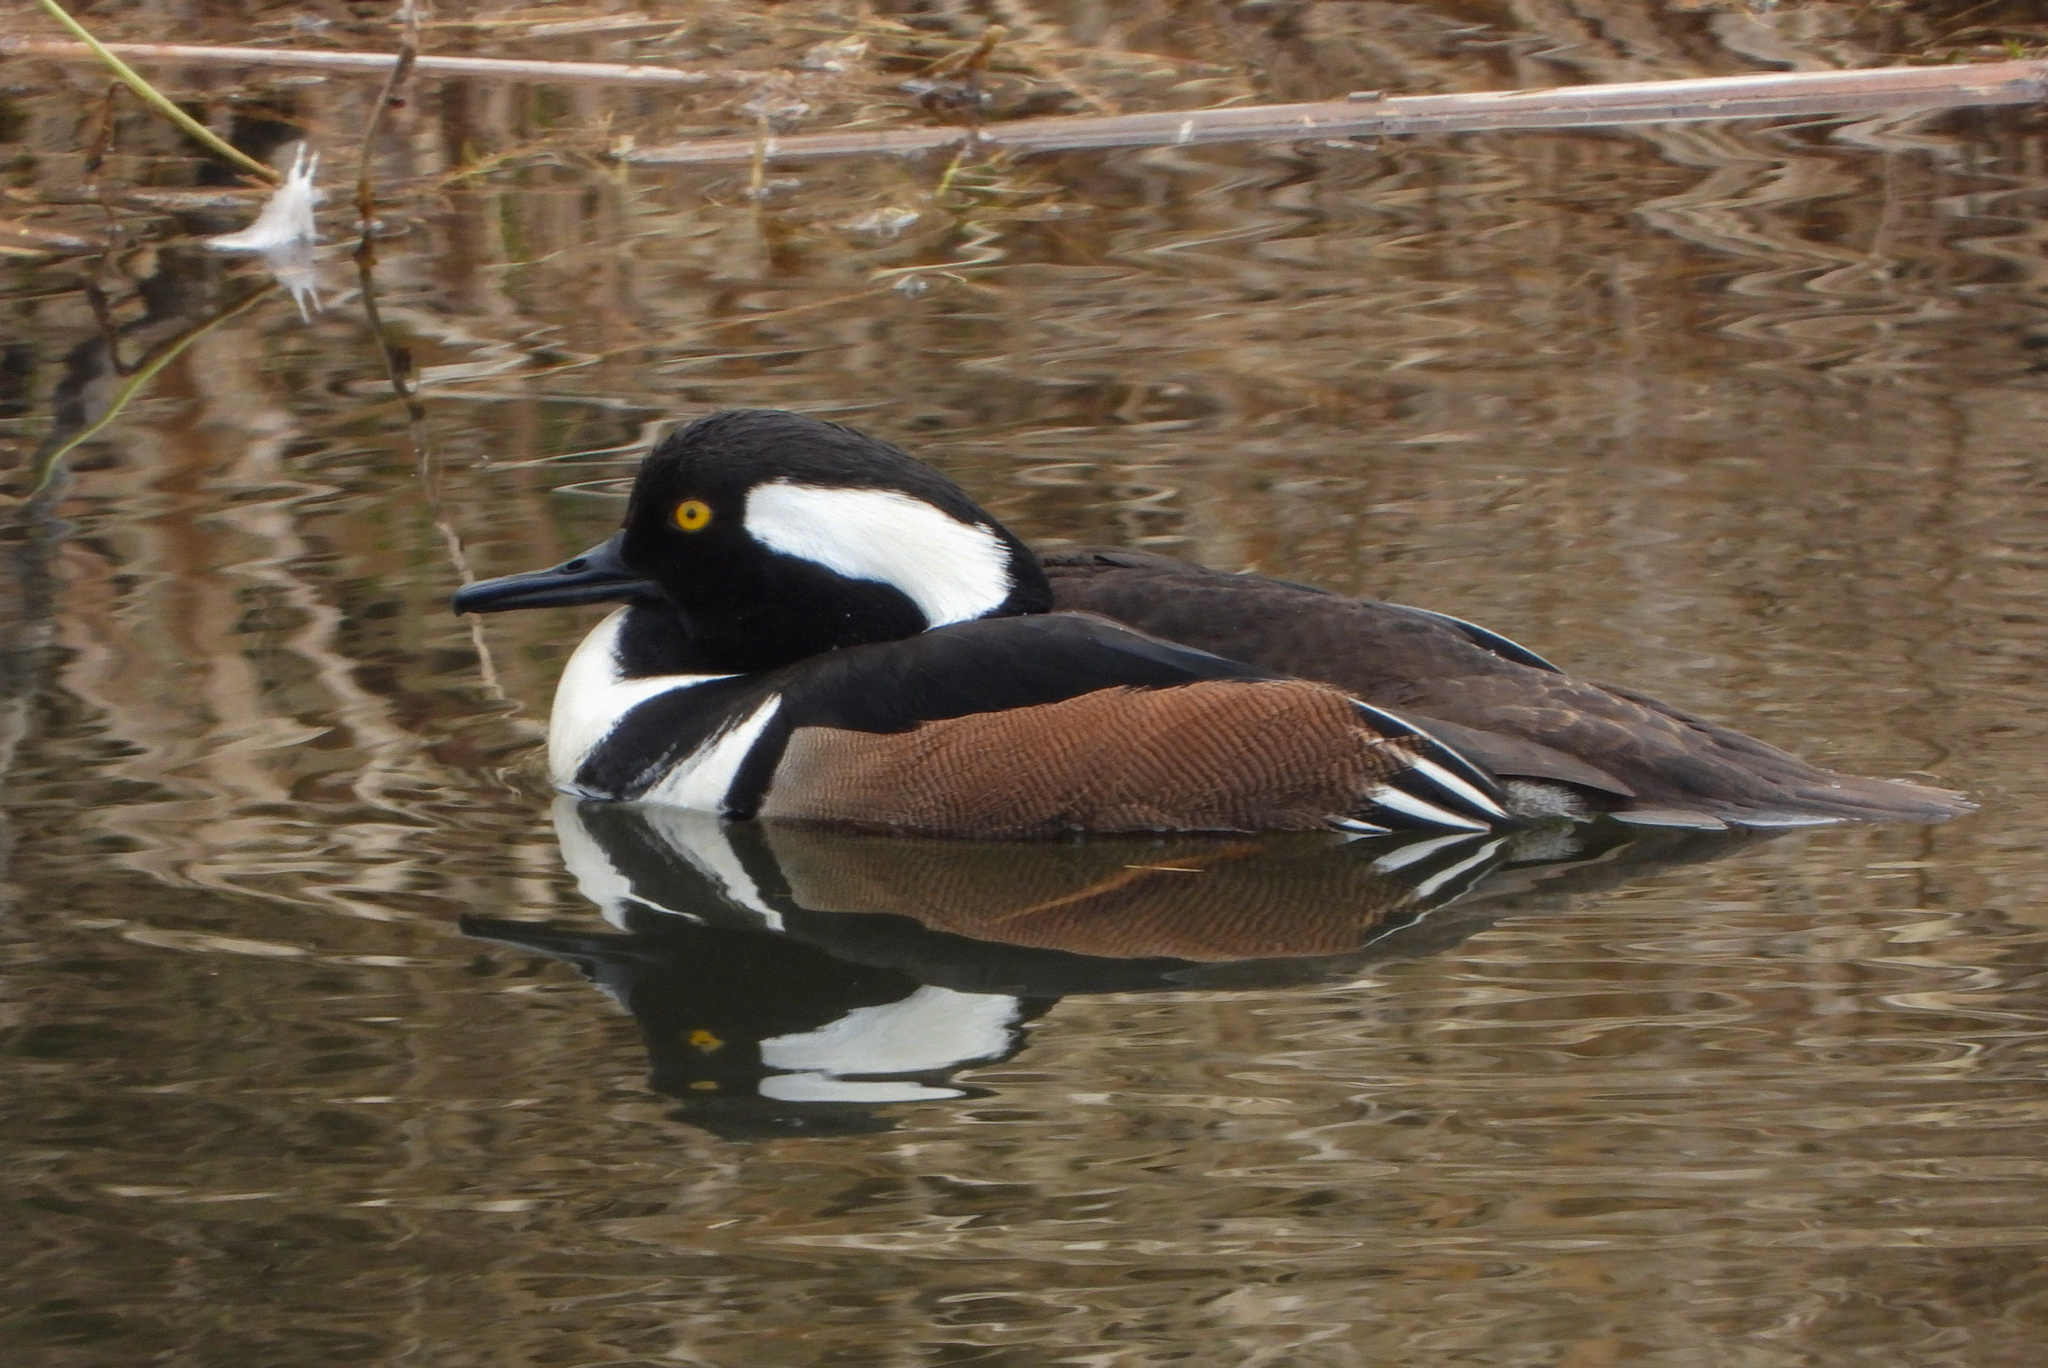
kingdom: Animalia
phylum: Chordata
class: Aves
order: Anseriformes
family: Anatidae
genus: Lophodytes
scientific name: Lophodytes cucullatus
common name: Hooded merganser
